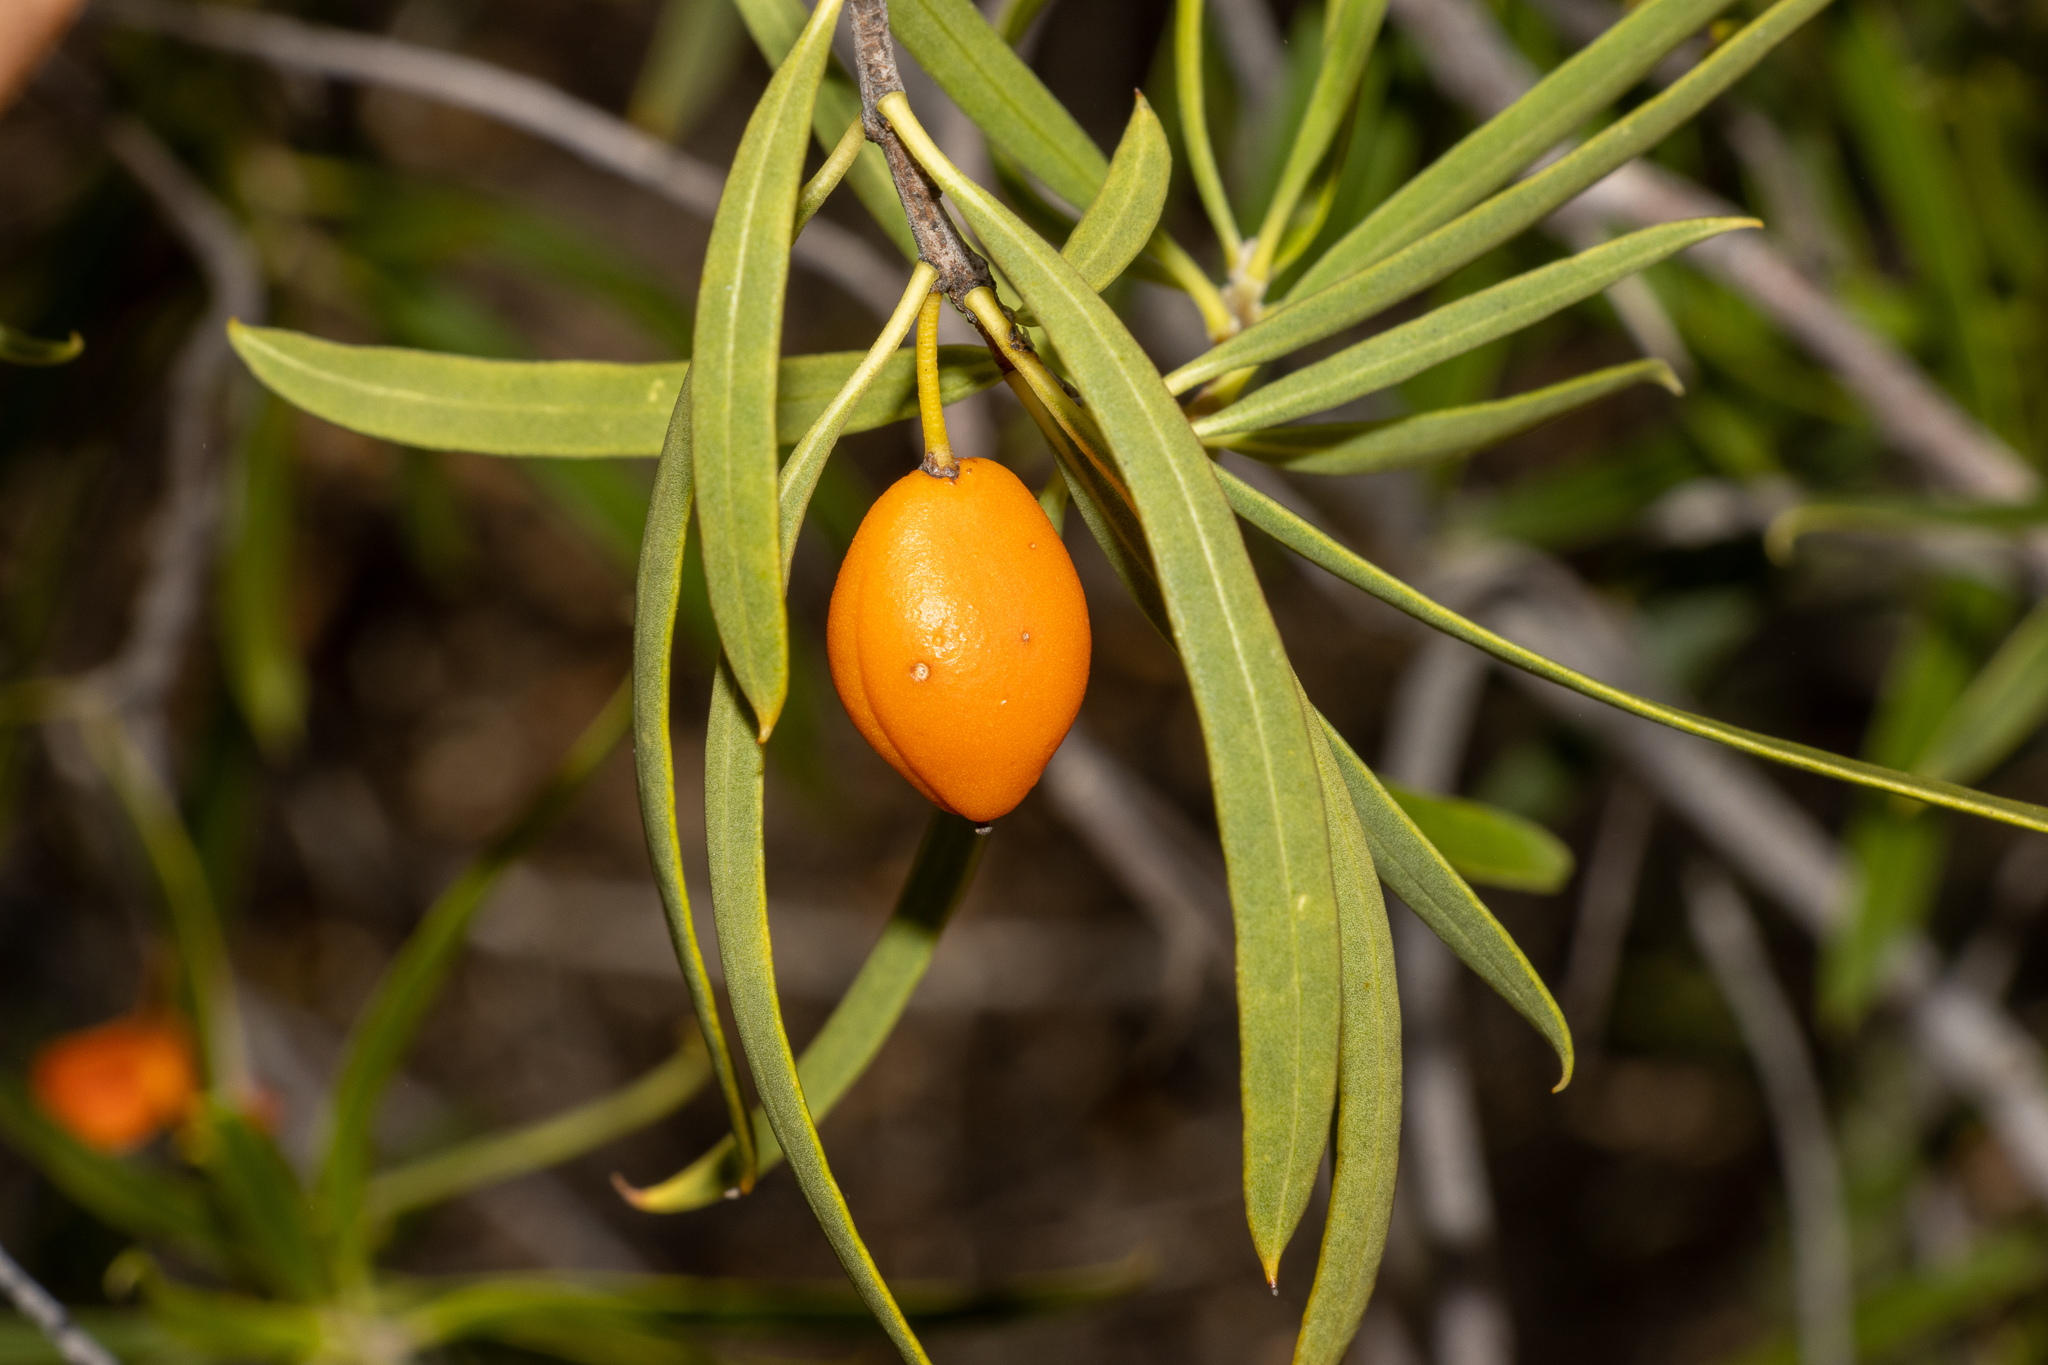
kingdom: Plantae
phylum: Tracheophyta
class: Magnoliopsida
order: Apiales
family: Pittosporaceae
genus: Pittosporum
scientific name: Pittosporum angustifolium
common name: Weeping pittosporum
